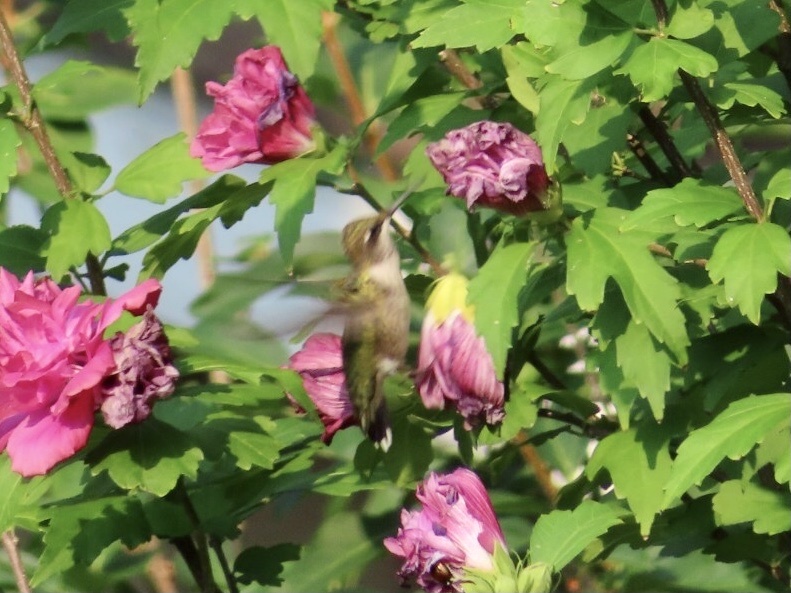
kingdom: Animalia
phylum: Chordata
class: Aves
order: Apodiformes
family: Trochilidae
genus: Archilochus
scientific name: Archilochus colubris
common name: Ruby-throated hummingbird
